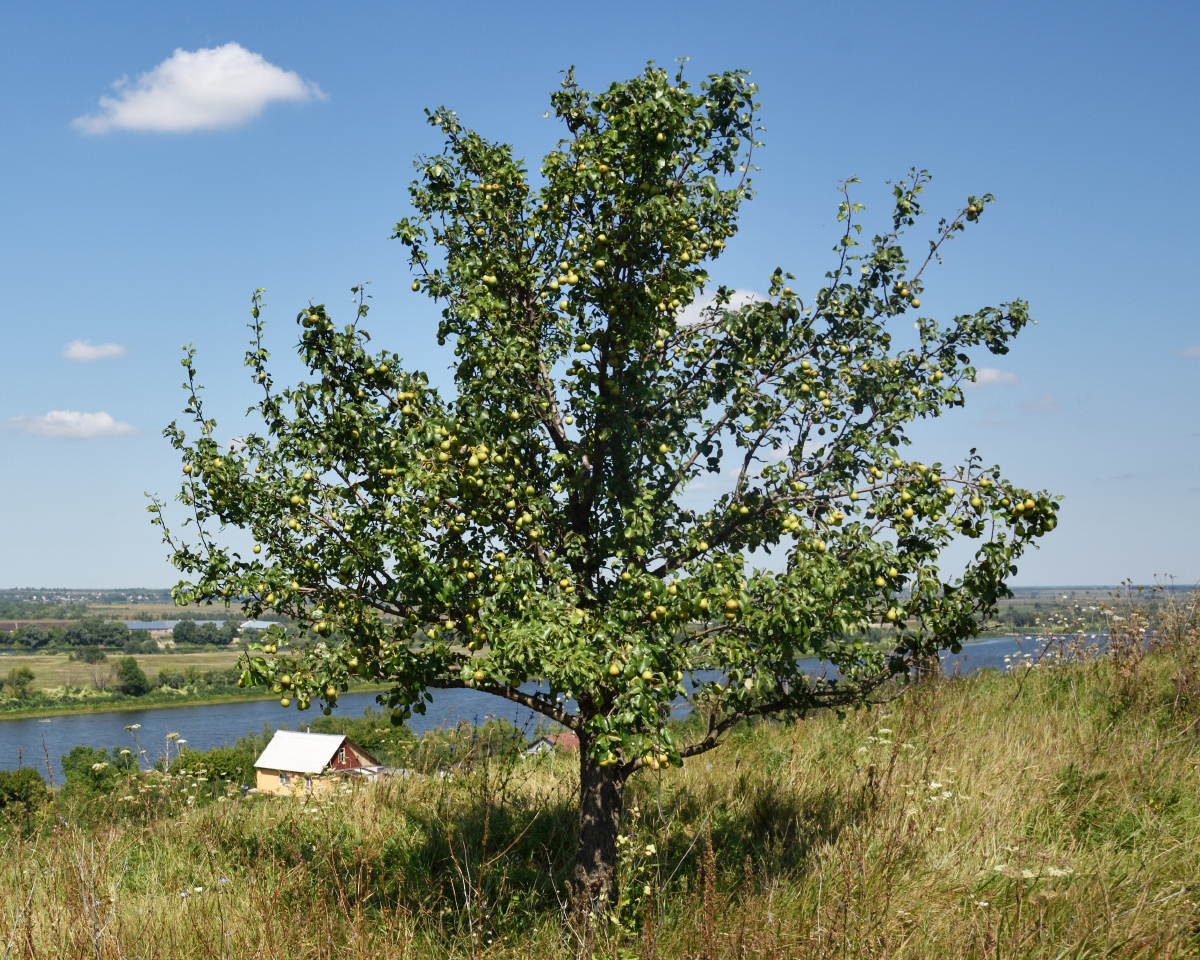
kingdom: Plantae
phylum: Tracheophyta
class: Magnoliopsida
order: Rosales
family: Rosaceae
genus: Pyrus
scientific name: Pyrus communis
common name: Pear
